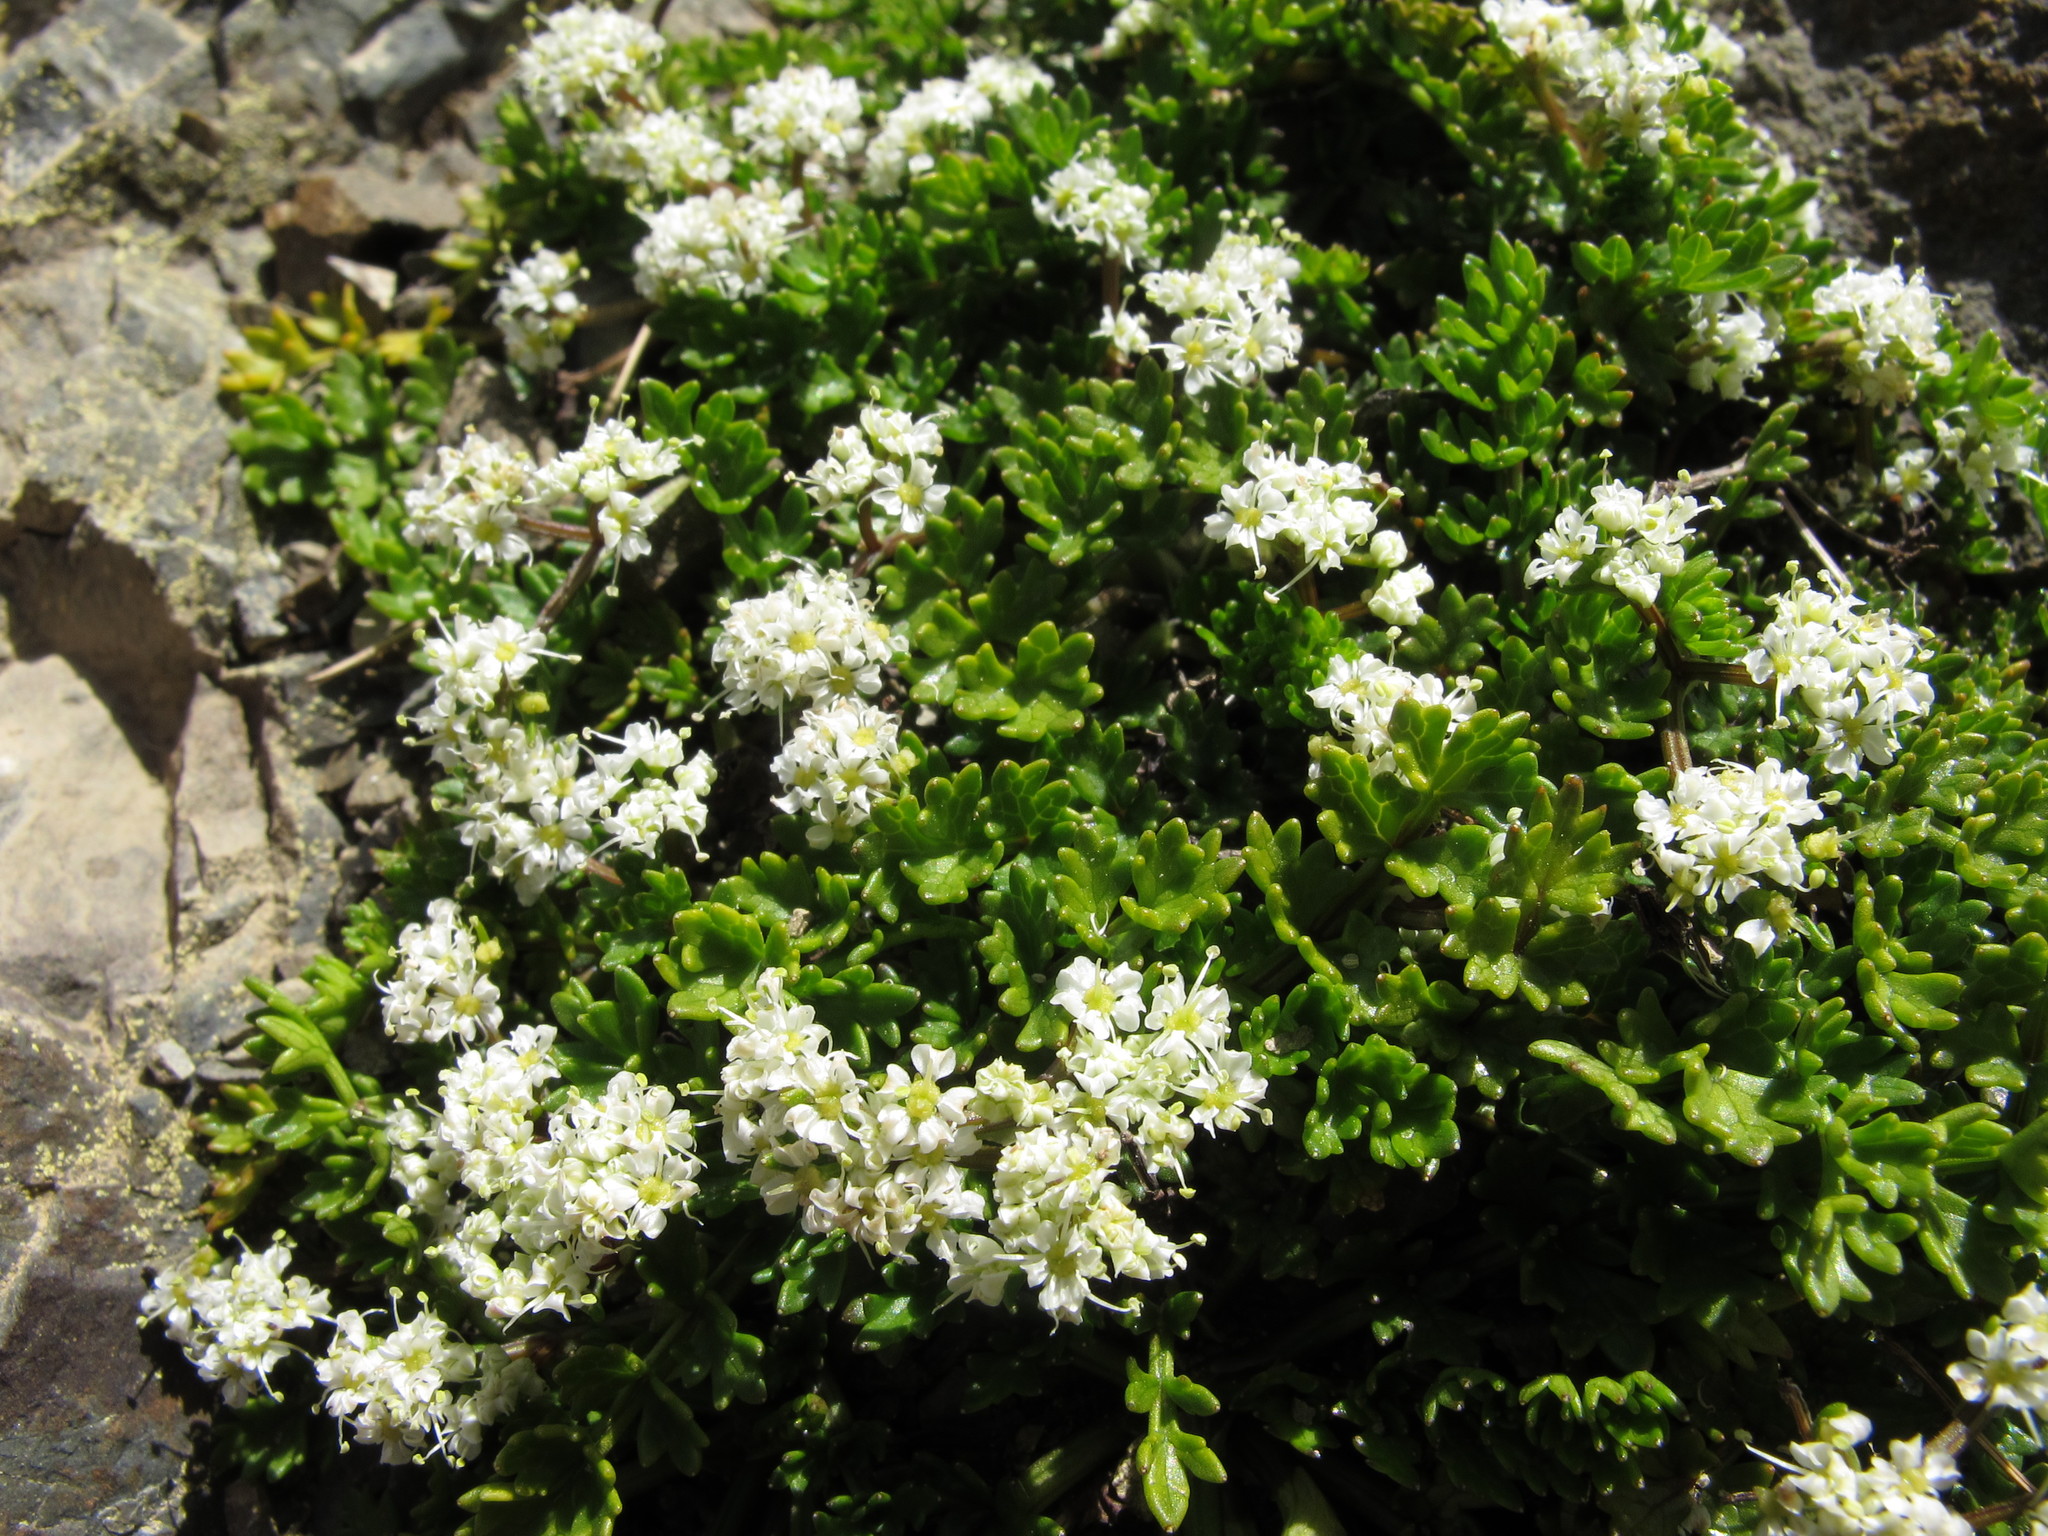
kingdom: Plantae
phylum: Tracheophyta
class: Magnoliopsida
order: Apiales
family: Apiaceae
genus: Gingidia
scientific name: Gingidia decipiens
